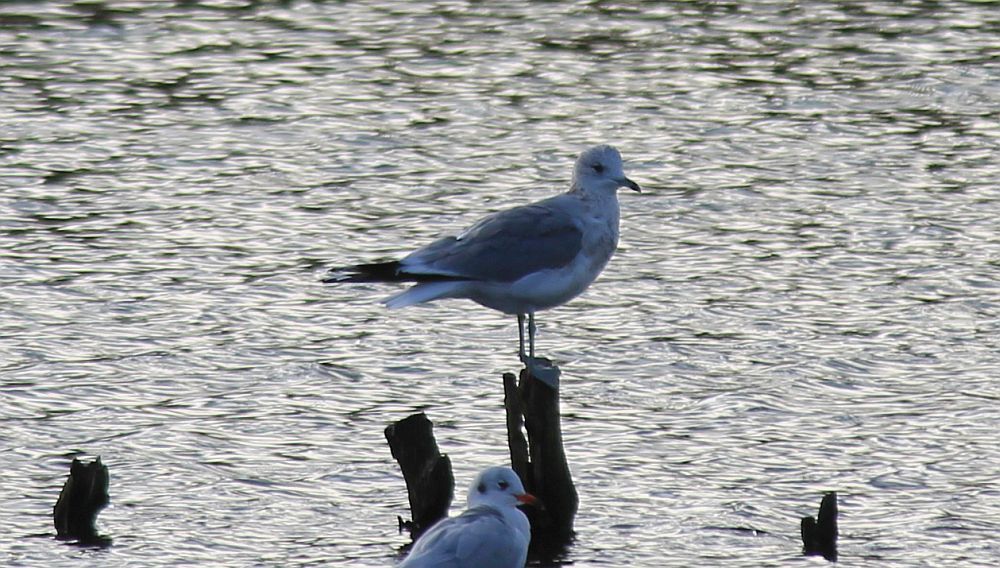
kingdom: Animalia
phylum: Chordata
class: Aves
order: Charadriiformes
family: Laridae
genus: Larus
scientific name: Larus canus
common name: Mew gull
